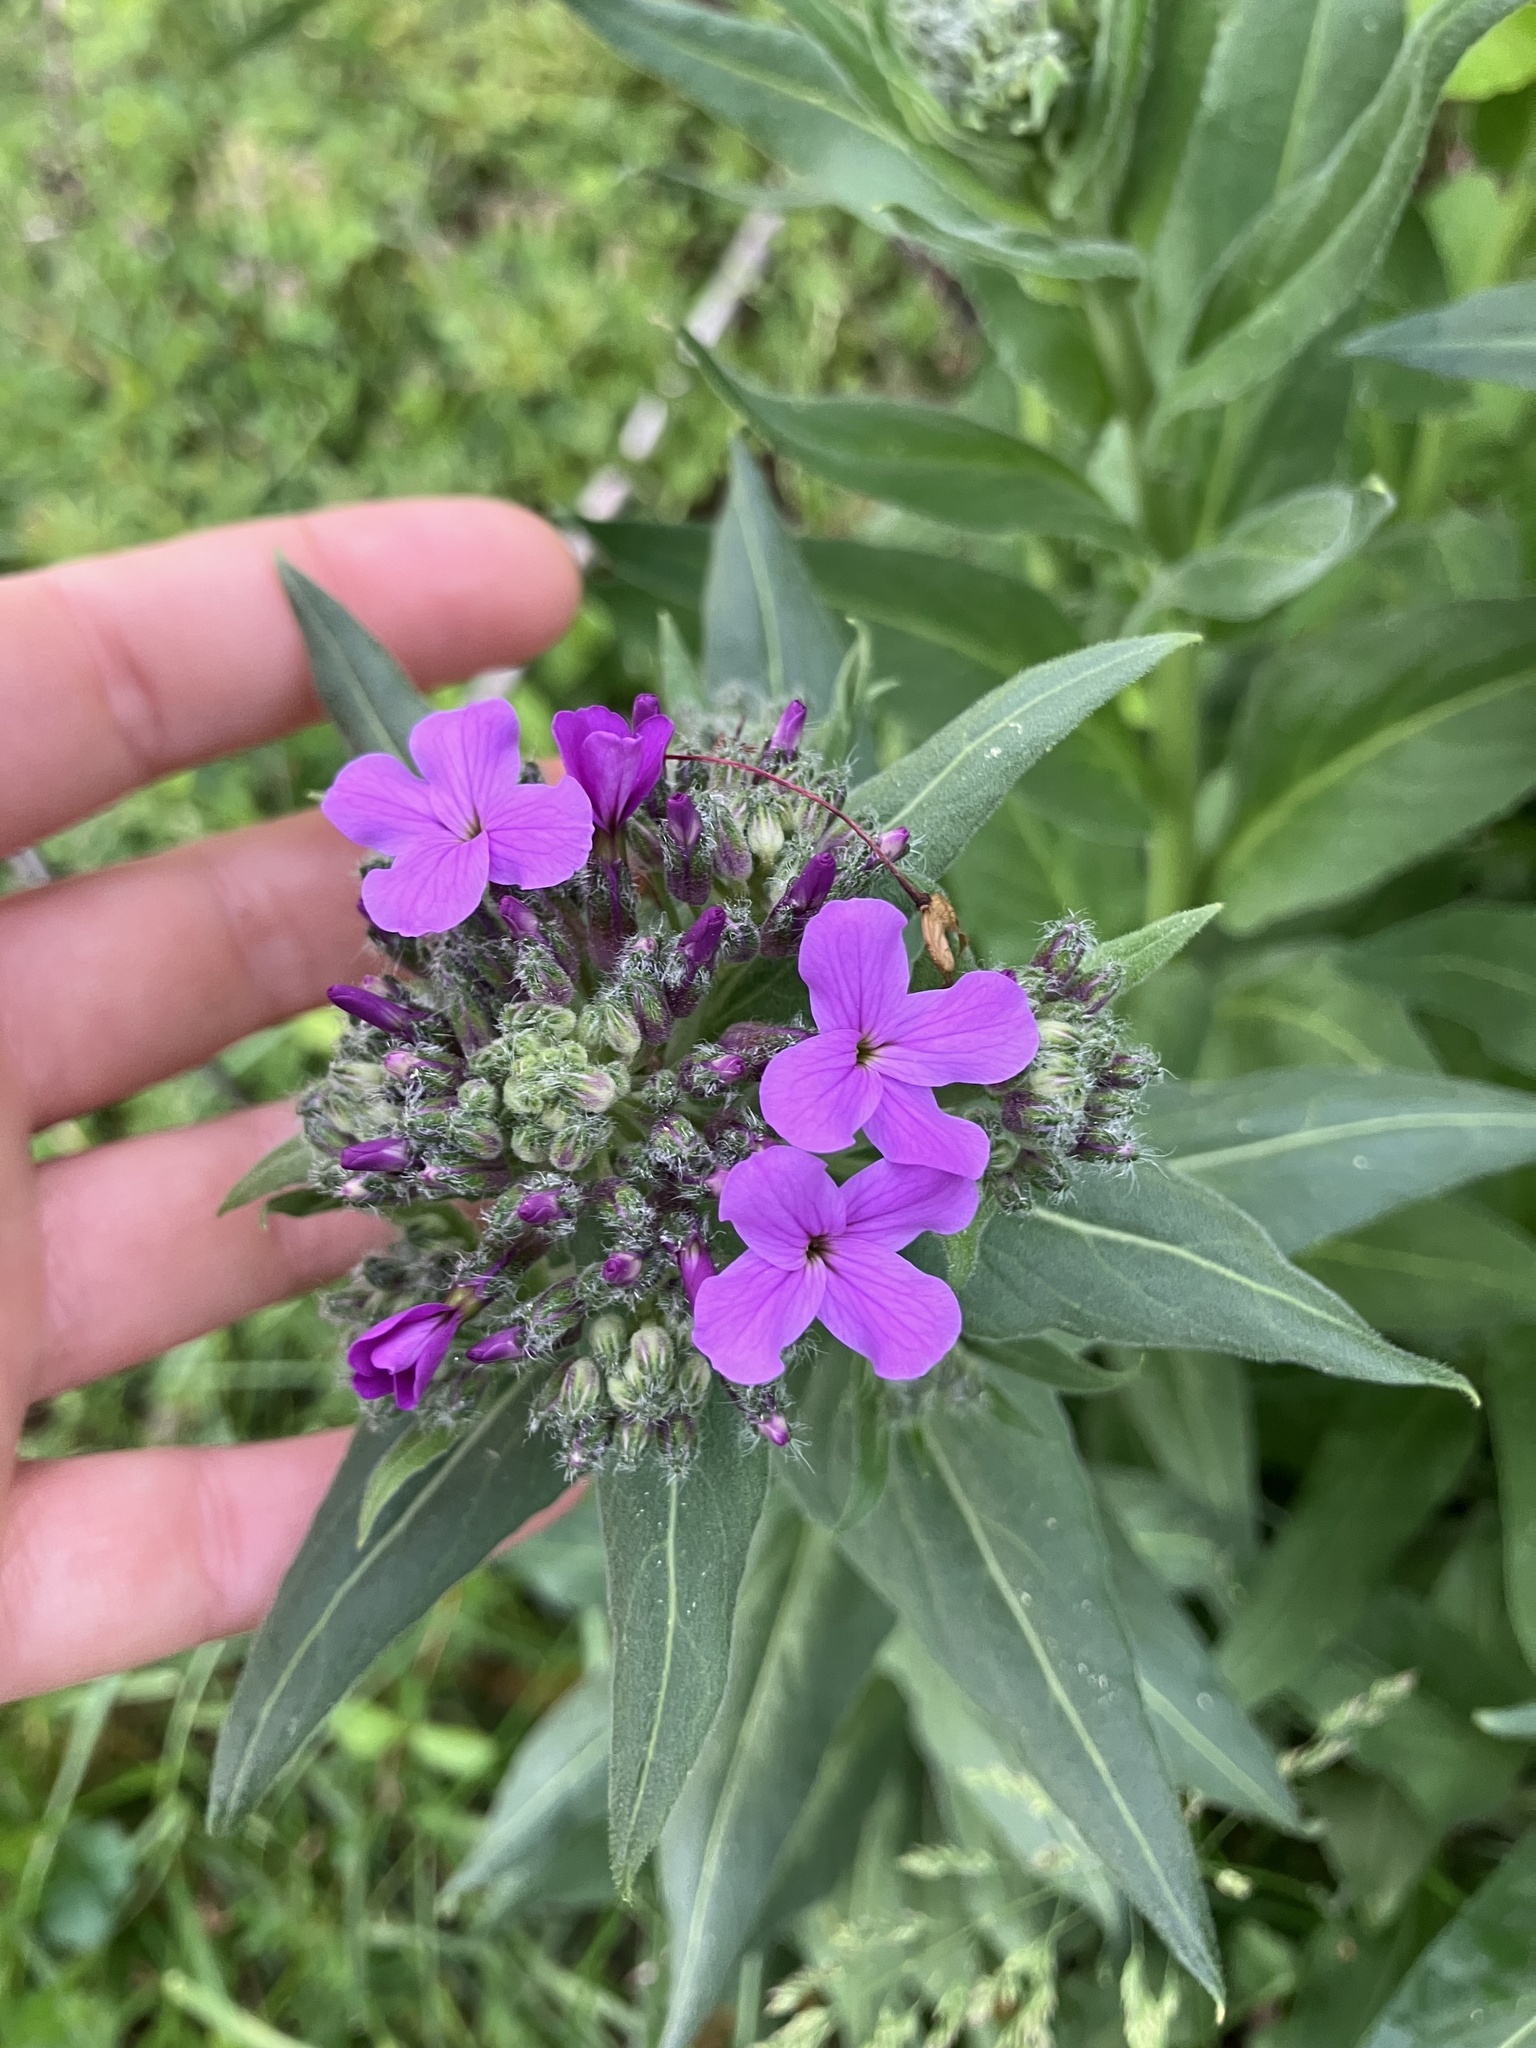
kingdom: Plantae
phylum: Tracheophyta
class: Magnoliopsida
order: Brassicales
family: Brassicaceae
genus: Hesperis
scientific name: Hesperis matronalis
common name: Dame's-violet
